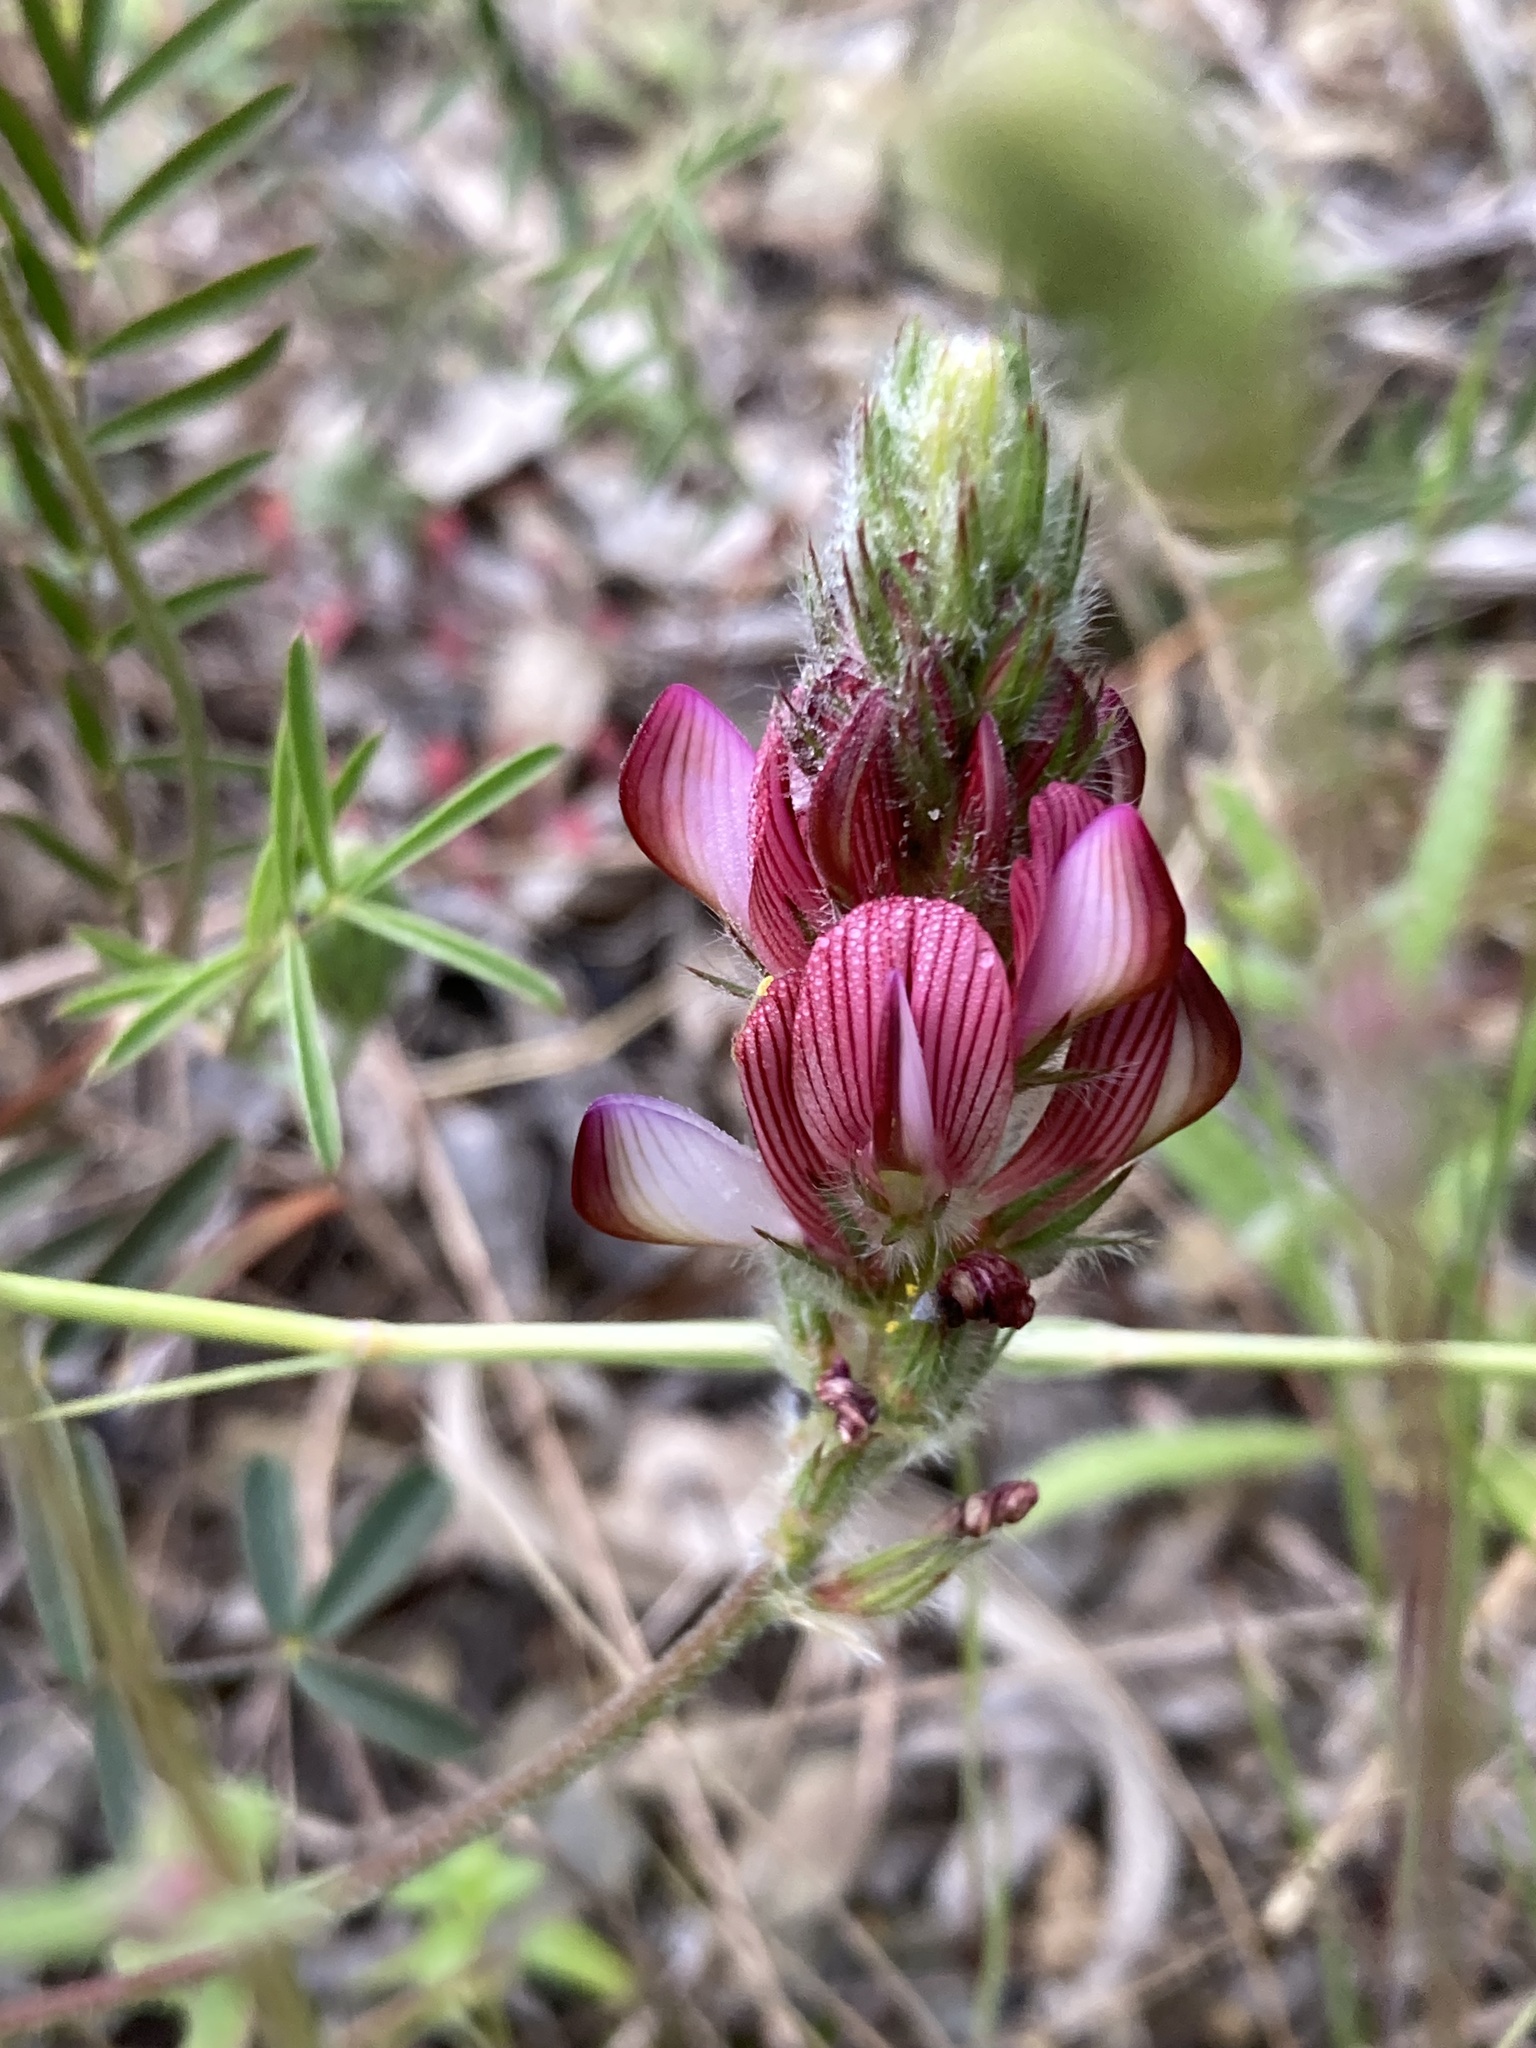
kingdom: Plantae
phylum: Tracheophyta
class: Magnoliopsida
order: Fabales
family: Fabaceae
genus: Onobrychis
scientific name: Onobrychis humilis
